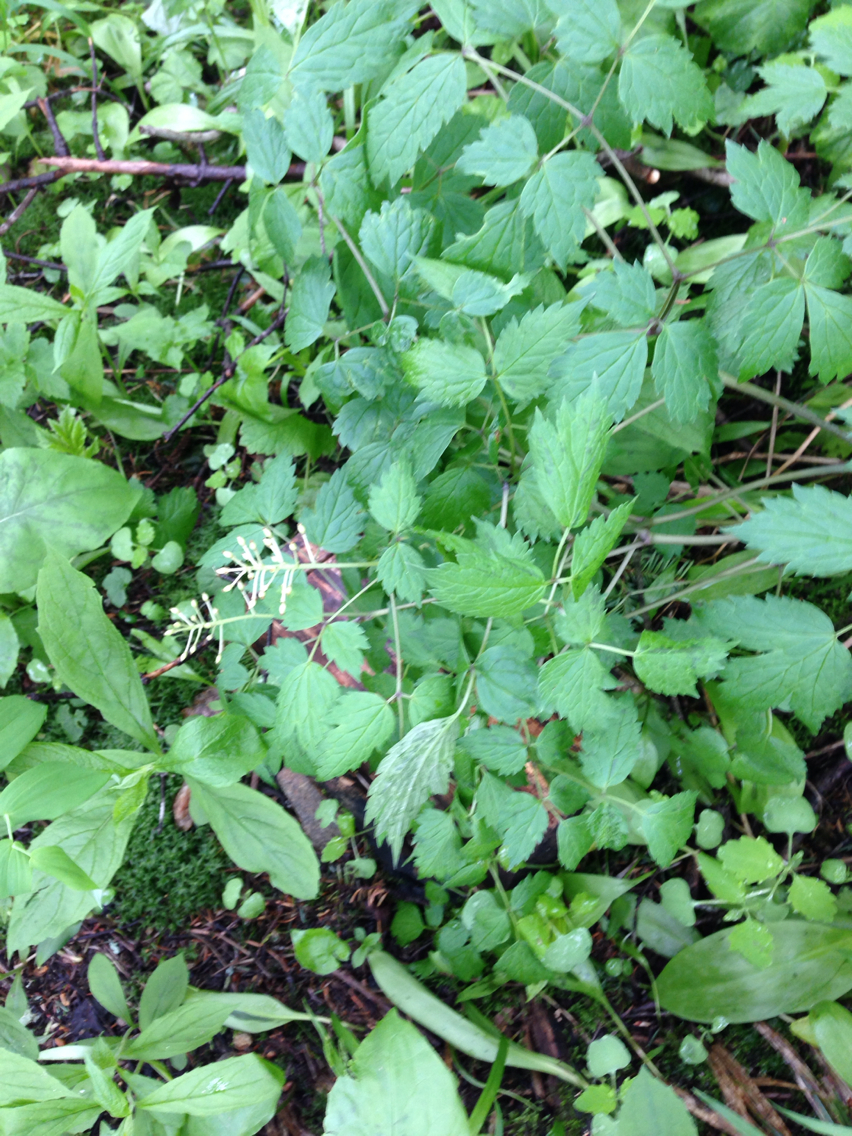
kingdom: Plantae
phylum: Tracheophyta
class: Magnoliopsida
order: Ranunculales
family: Ranunculaceae
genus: Actaea
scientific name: Actaea pachypoda
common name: Doll's-eyes
